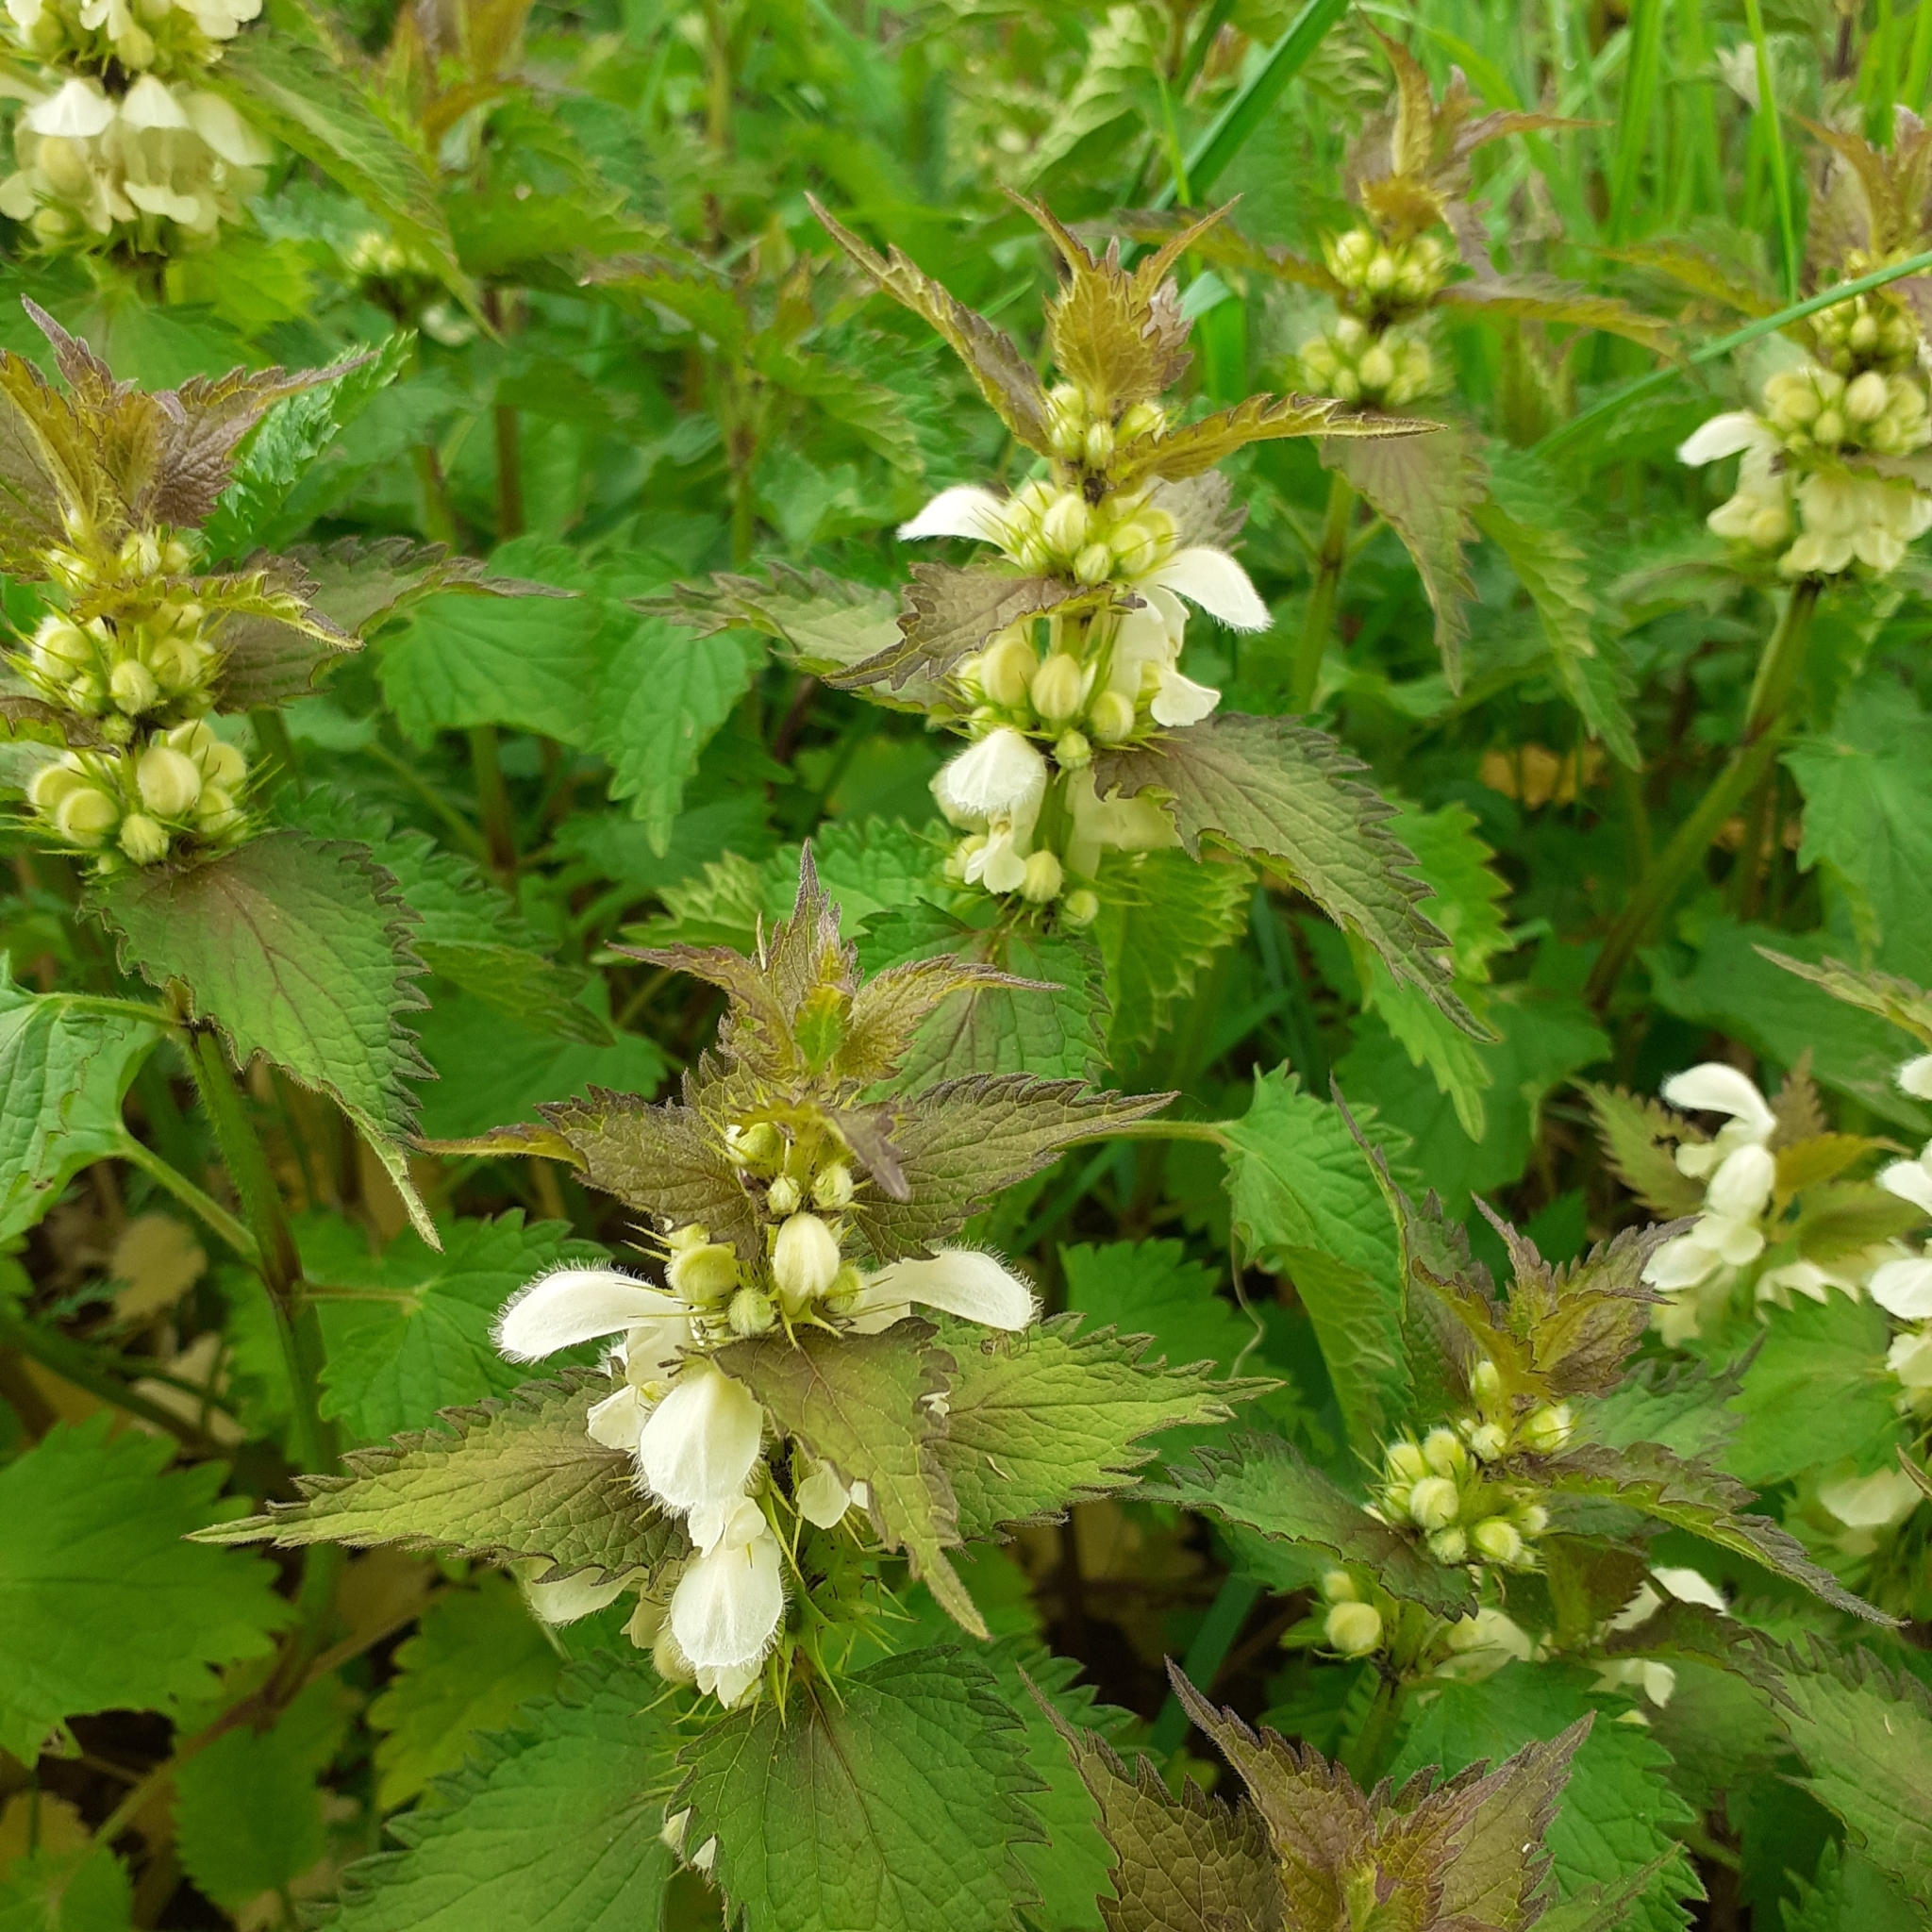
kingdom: Plantae
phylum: Tracheophyta
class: Magnoliopsida
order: Lamiales
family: Lamiaceae
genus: Lamium
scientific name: Lamium album
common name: White dead-nettle
